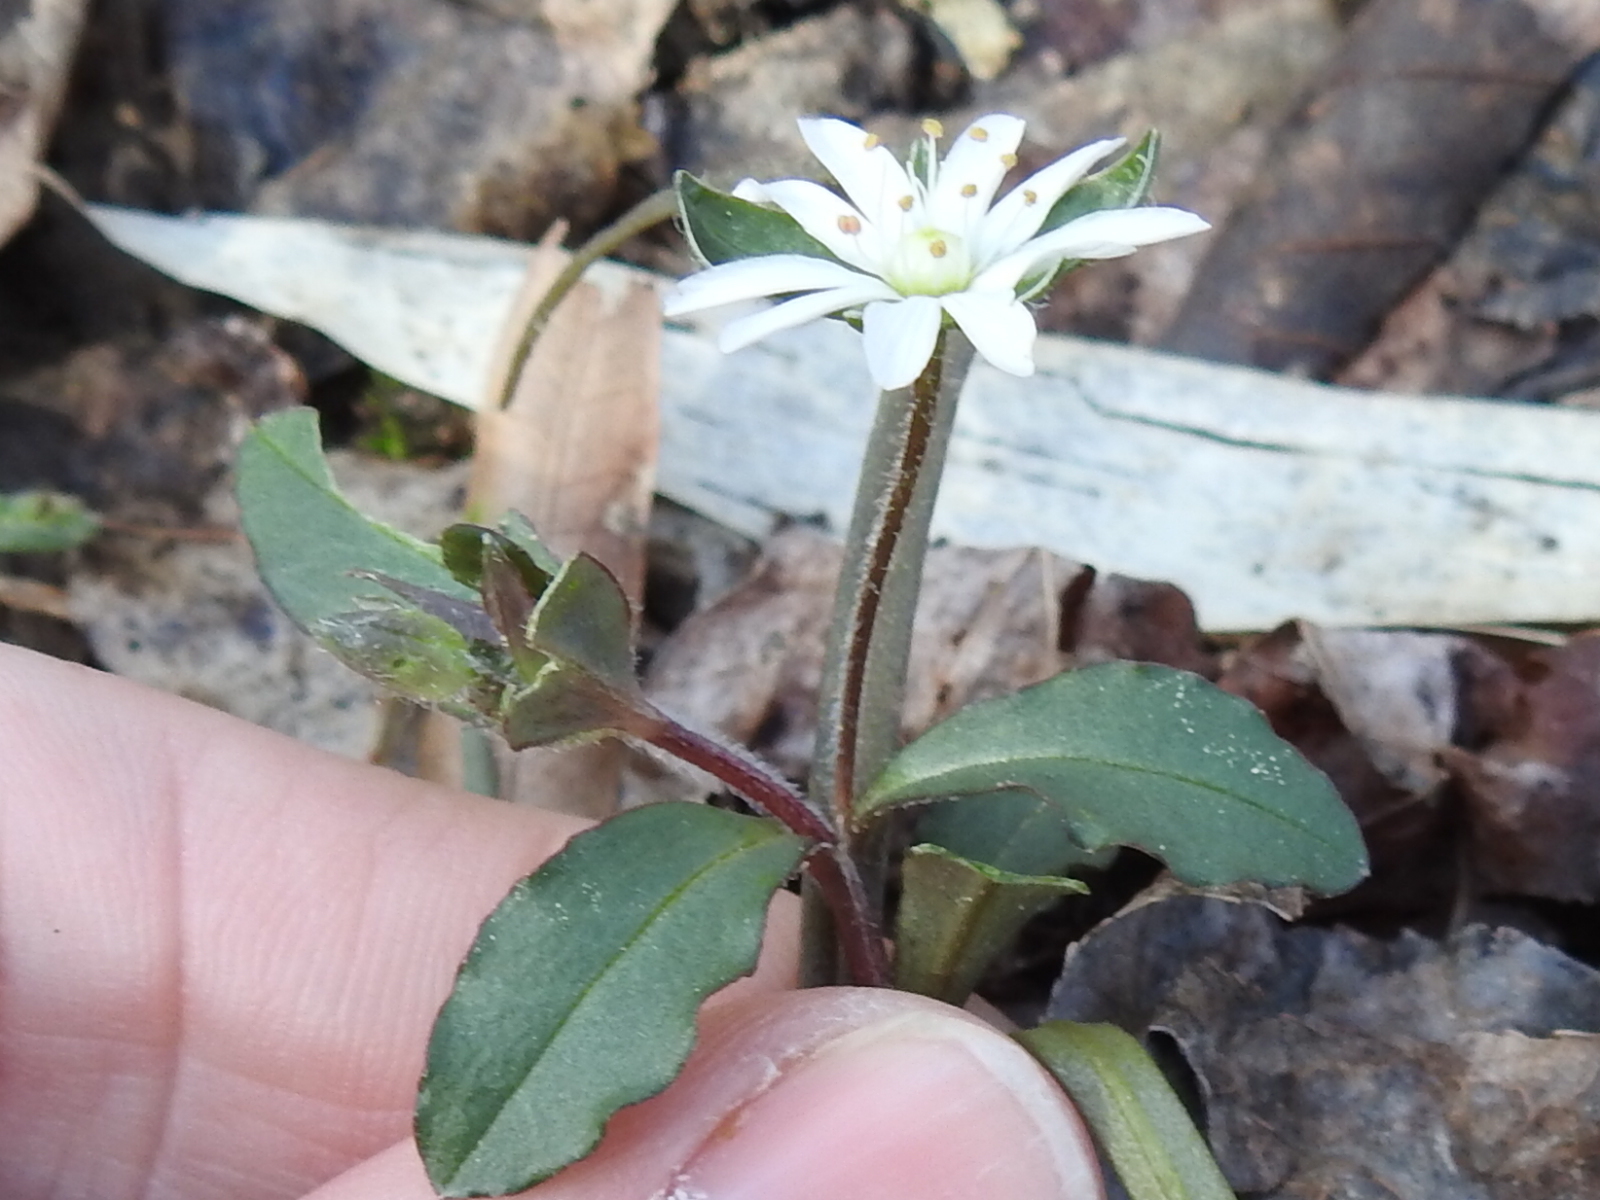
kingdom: Plantae
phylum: Tracheophyta
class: Magnoliopsida
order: Caryophyllales
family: Caryophyllaceae
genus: Stellaria
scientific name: Stellaria pubera
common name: Star chickweed
